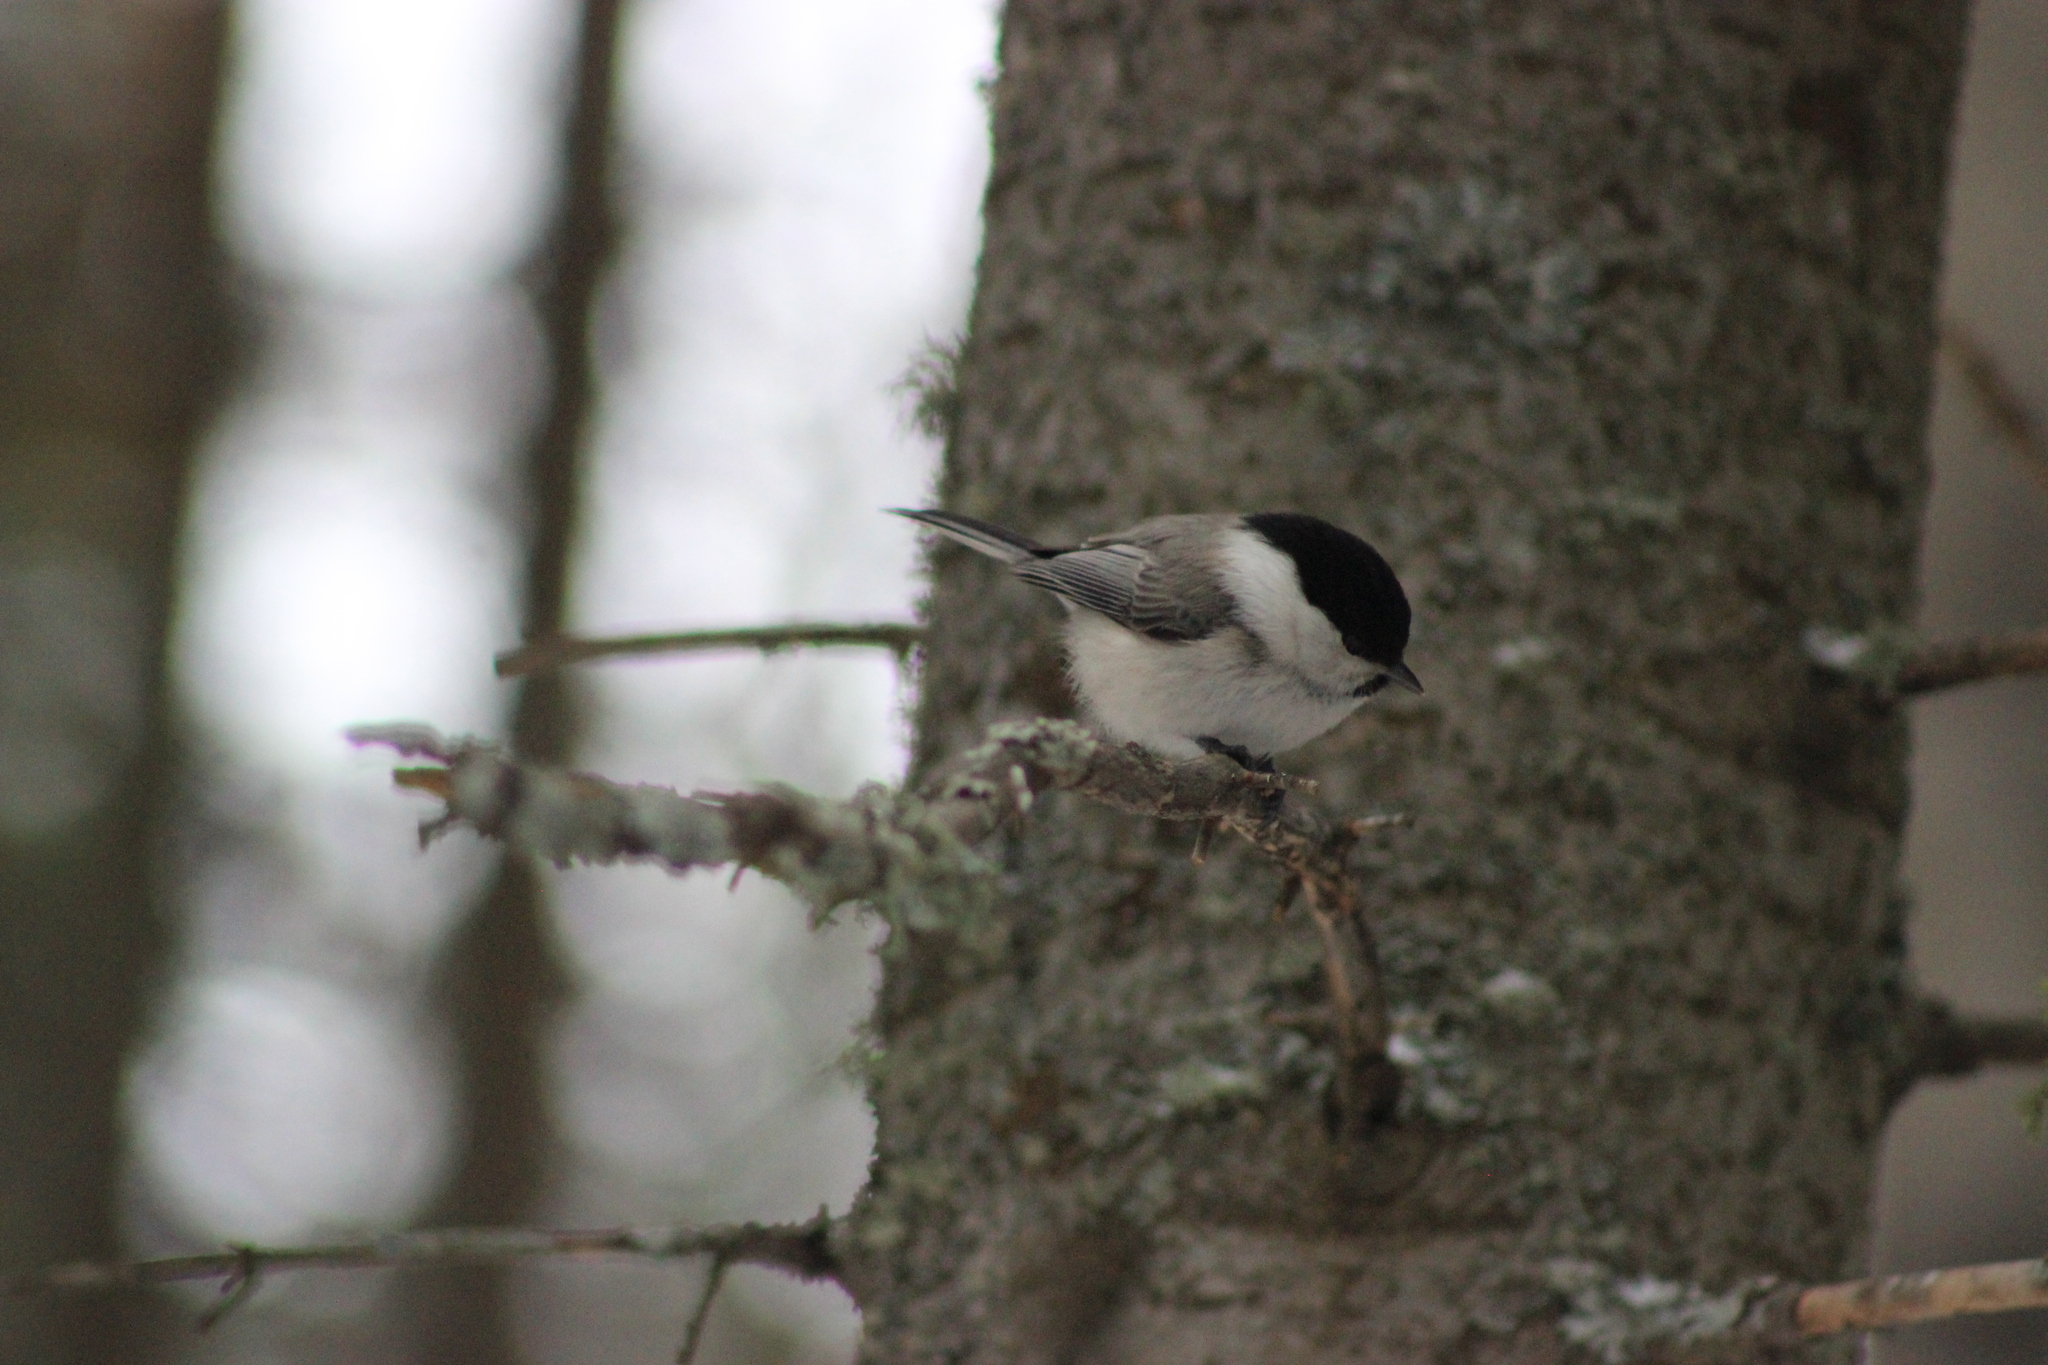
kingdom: Animalia
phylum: Chordata
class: Aves
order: Passeriformes
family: Paridae
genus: Poecile
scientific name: Poecile montanus
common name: Willow tit
